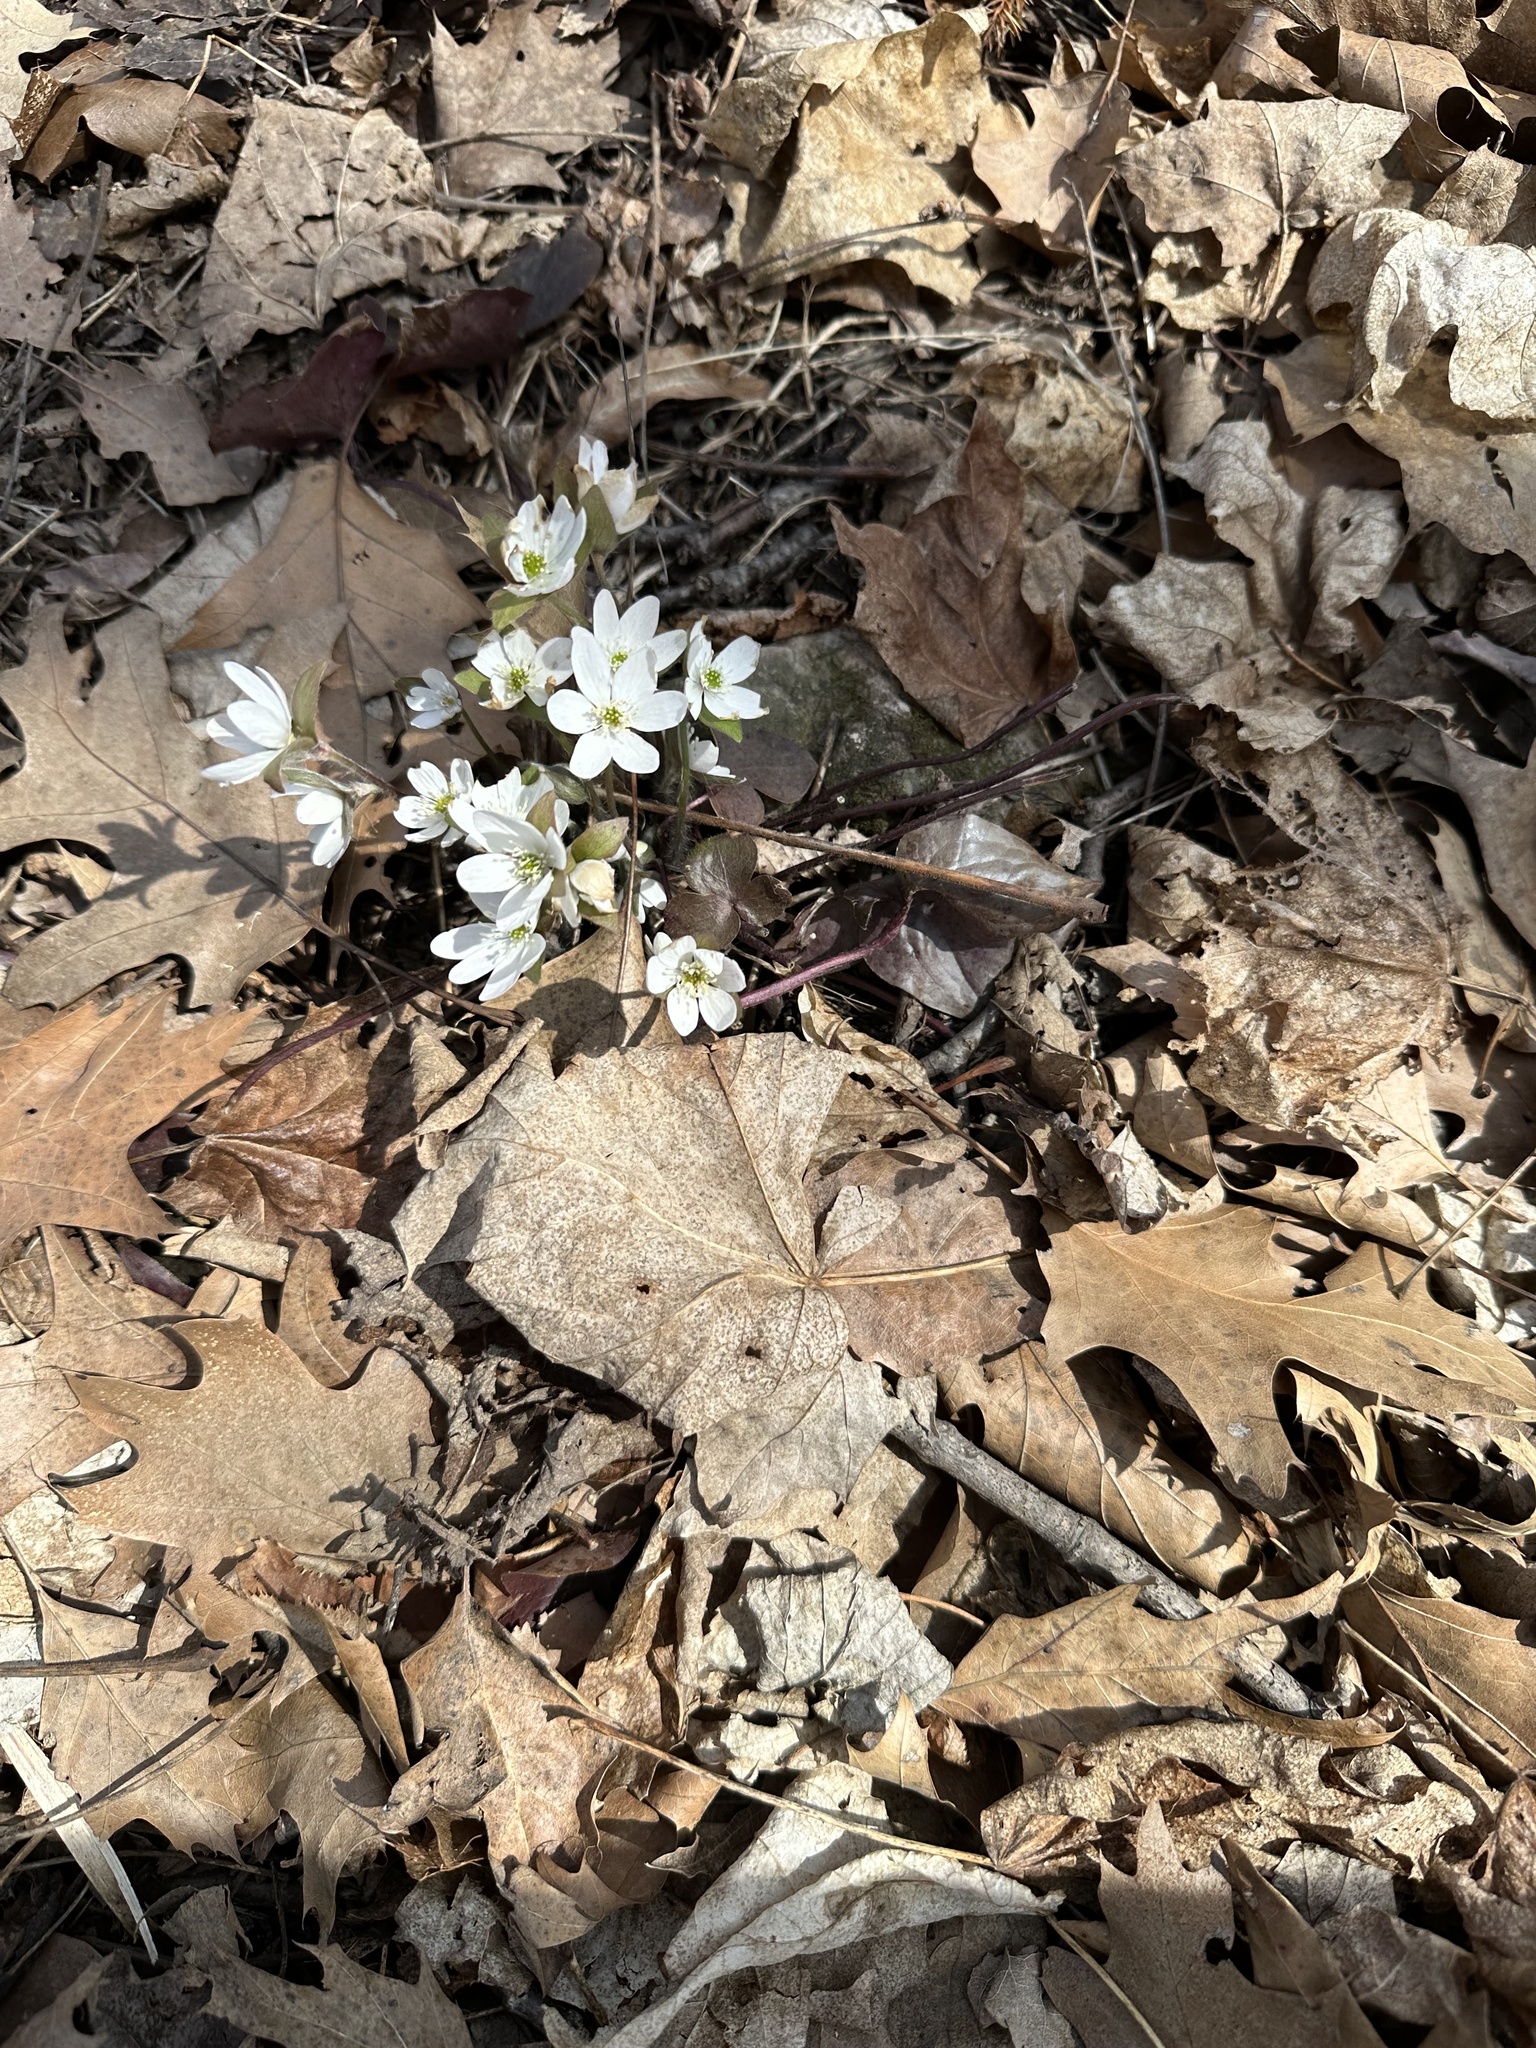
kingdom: Plantae
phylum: Tracheophyta
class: Magnoliopsida
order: Ranunculales
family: Ranunculaceae
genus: Hepatica
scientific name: Hepatica americana
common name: American hepatica
